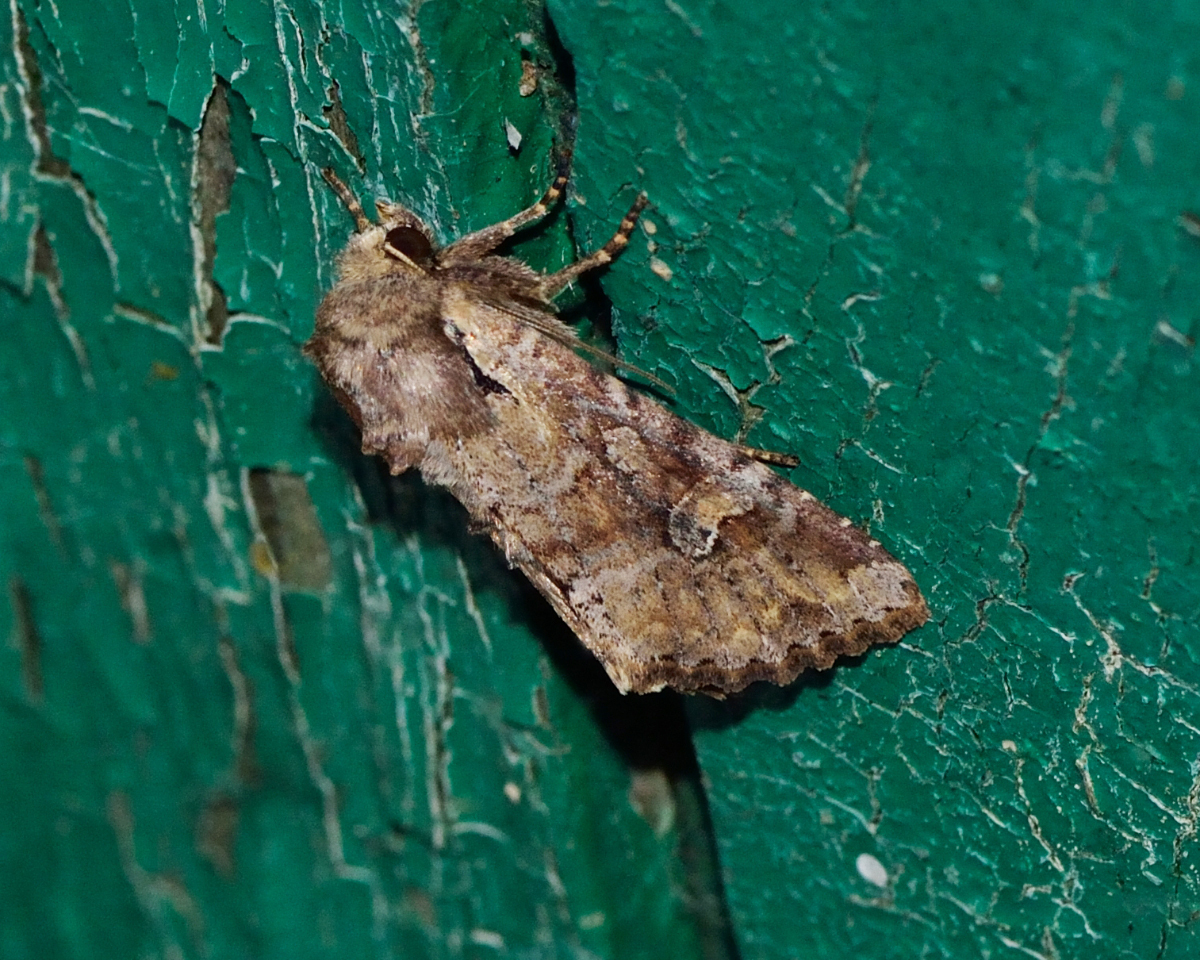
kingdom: Animalia
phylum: Arthropoda
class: Insecta
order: Lepidoptera
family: Noctuidae
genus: Apamea
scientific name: Apamea sordens
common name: Rustic shoulder-knot
